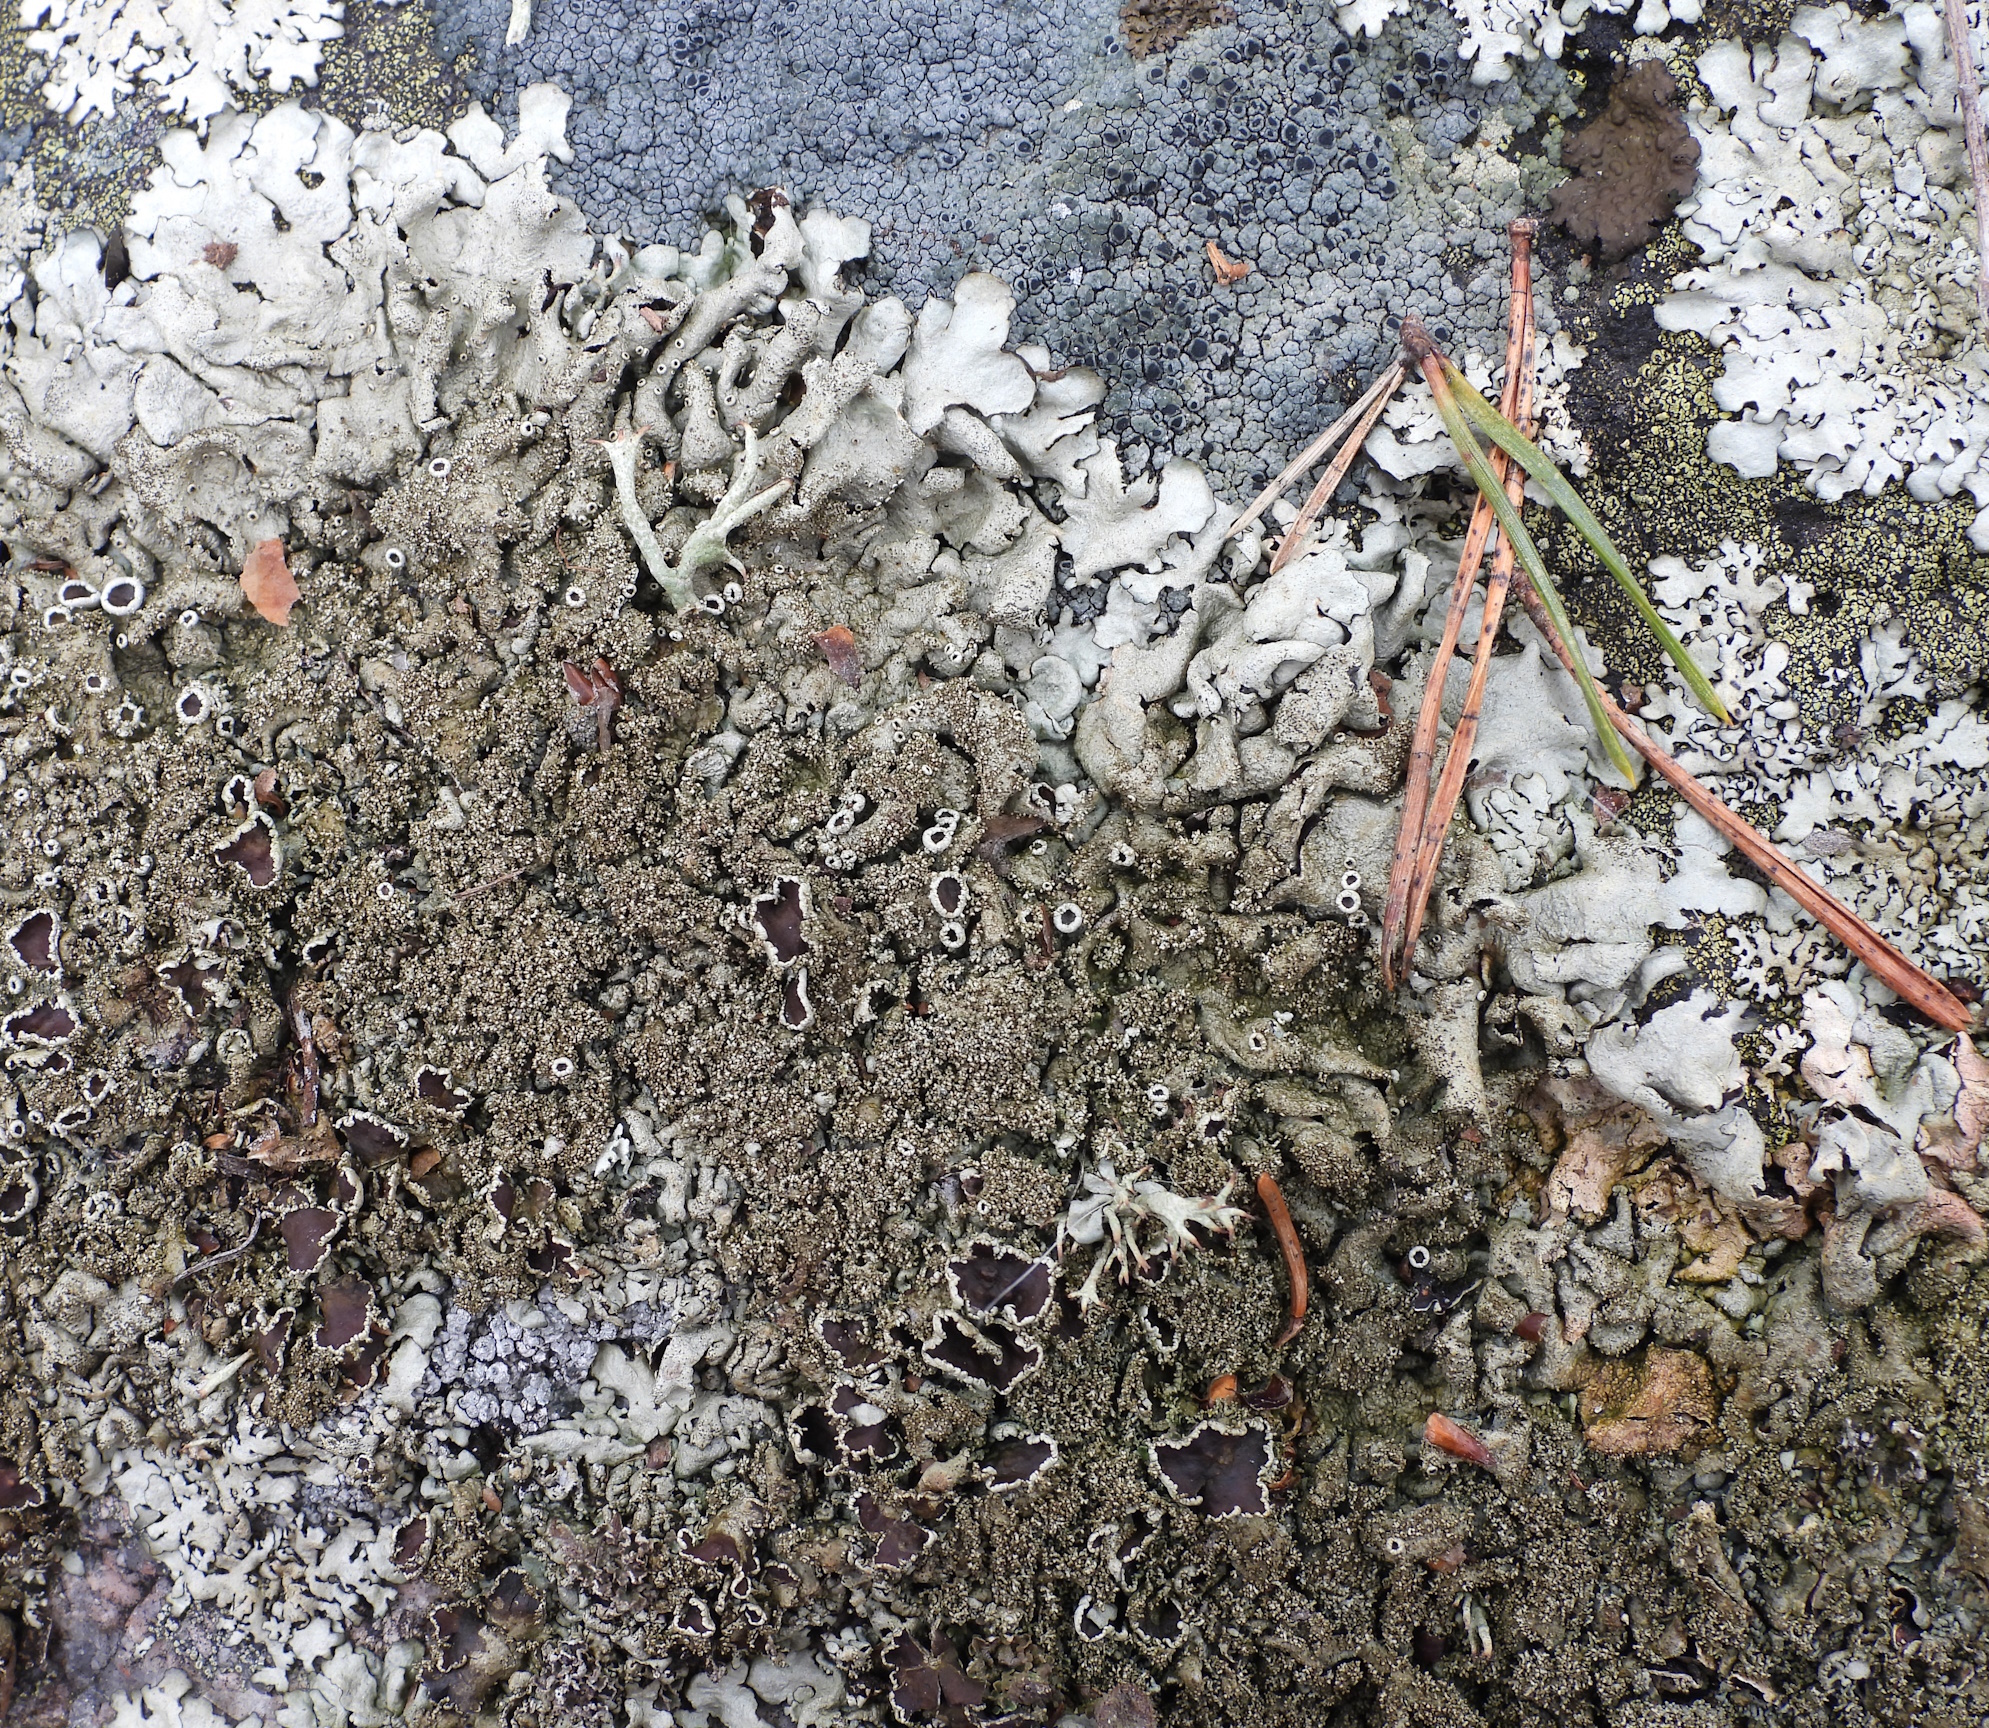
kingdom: Fungi
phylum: Ascomycota
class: Lecanoromycetes
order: Lecanorales
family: Parmeliaceae
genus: Xanthoparmelia
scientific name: Xanthoparmelia conspersa
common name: Peppered rock shield
